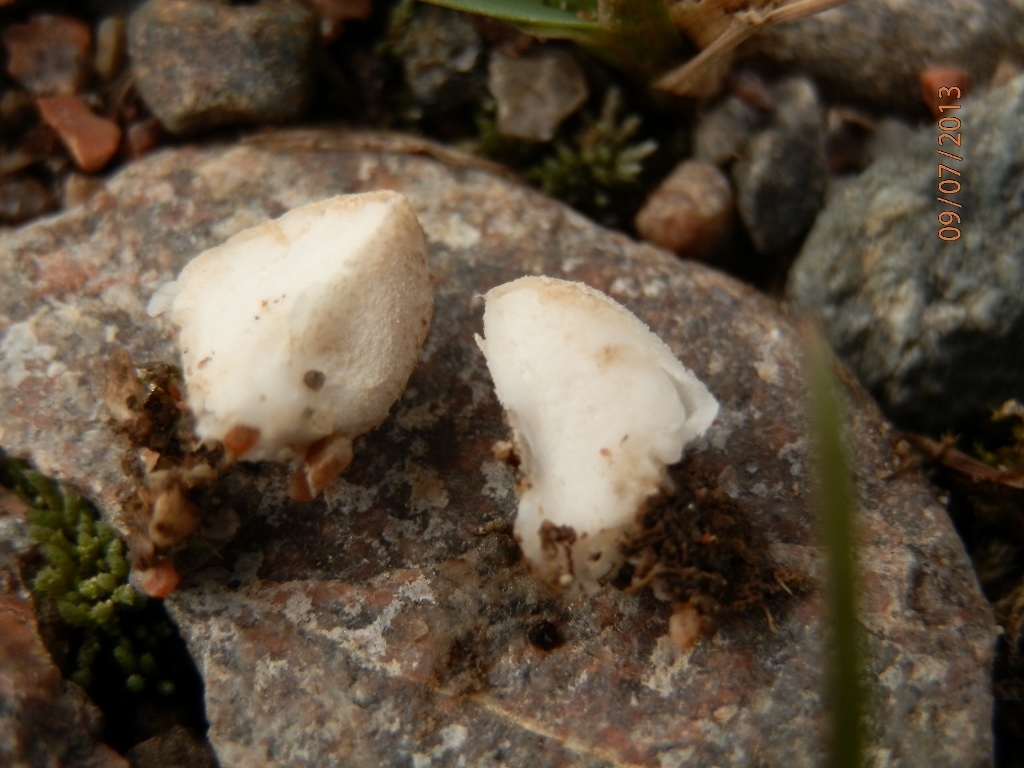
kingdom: Fungi
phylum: Basidiomycota
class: Agaricomycetes
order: Agaricales
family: Agaricaceae
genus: Arachnion
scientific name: Arachnion album
